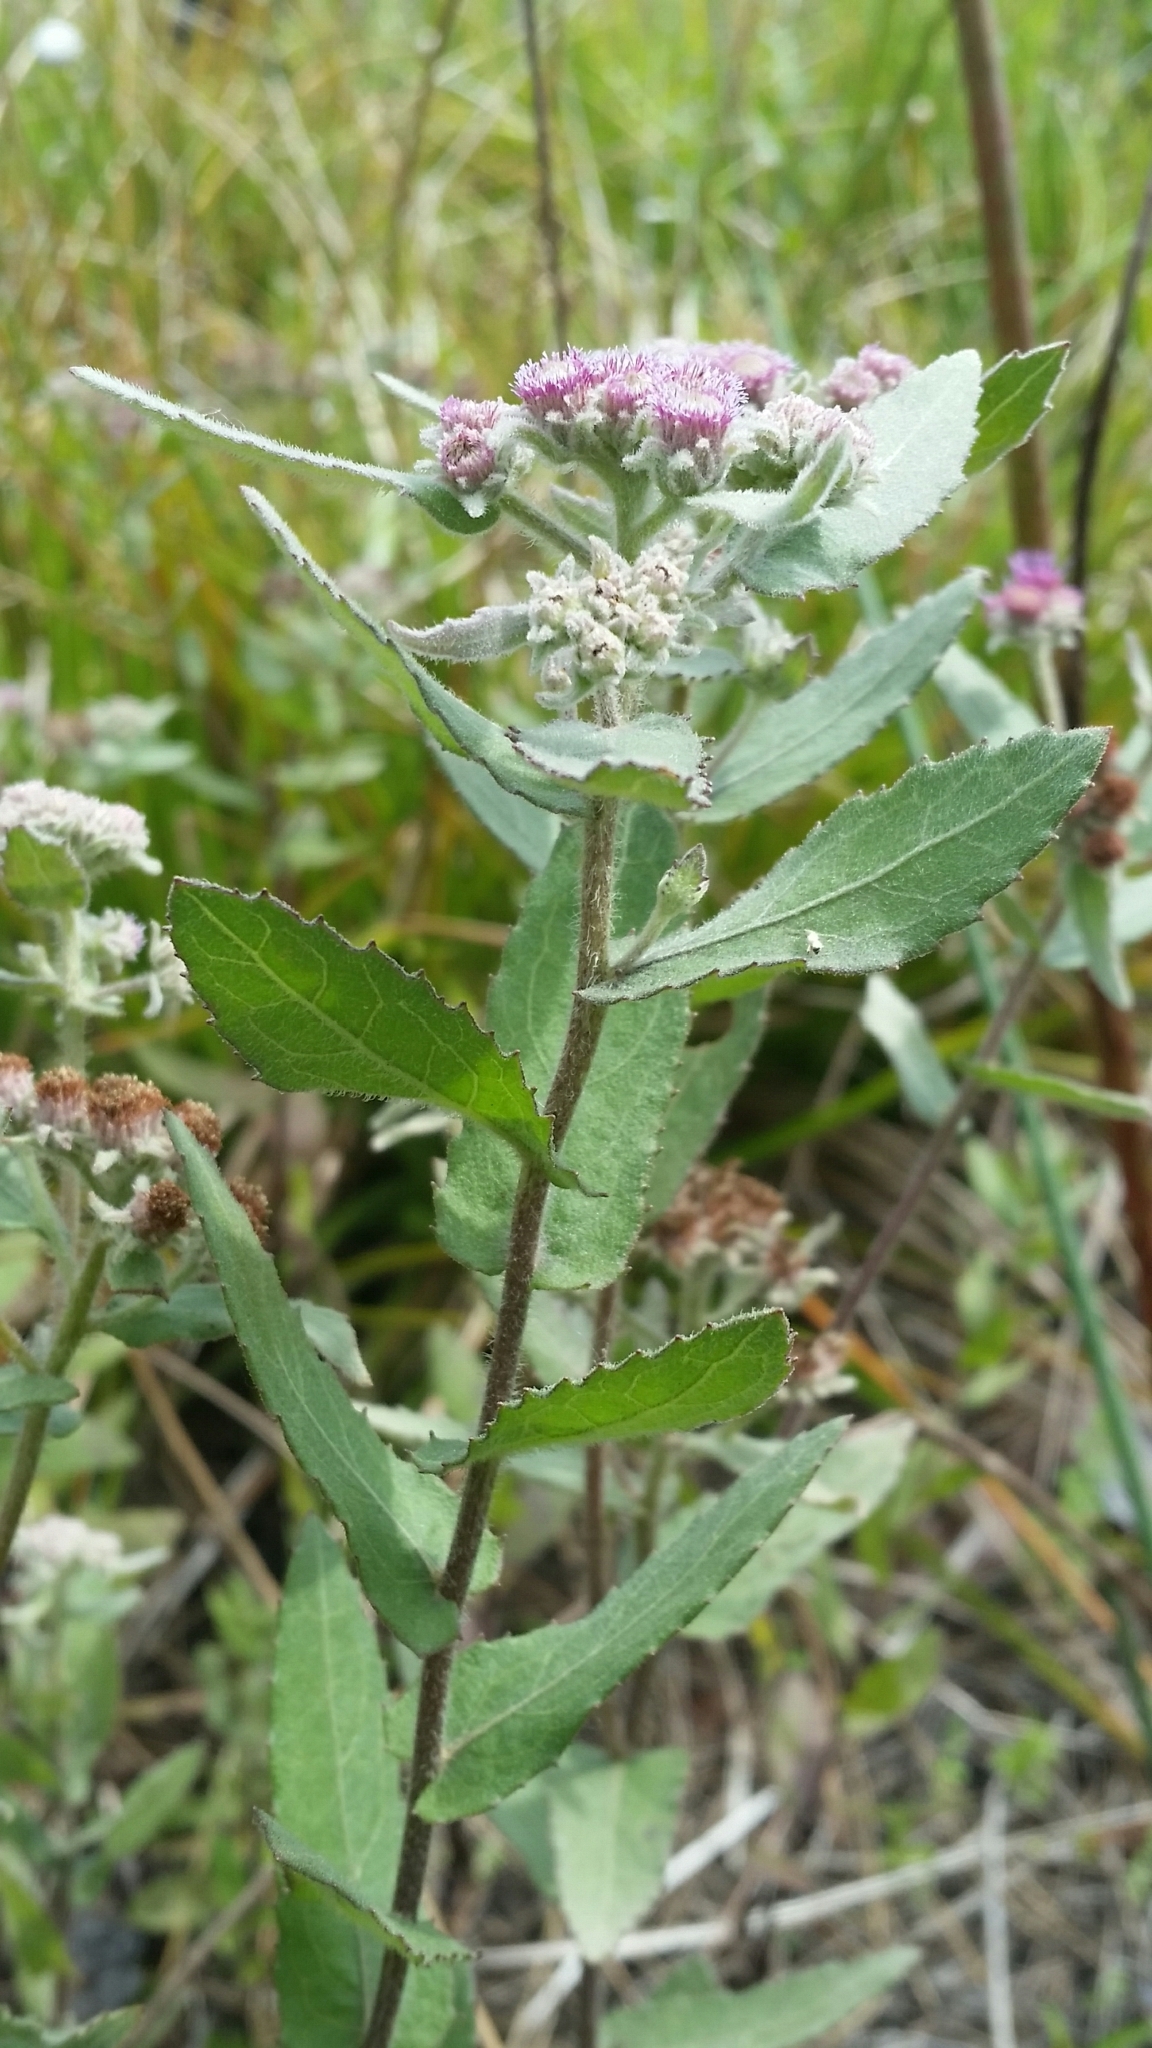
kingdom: Plantae
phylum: Tracheophyta
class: Magnoliopsida
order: Asterales
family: Asteraceae
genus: Pluchea
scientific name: Pluchea baccharis
